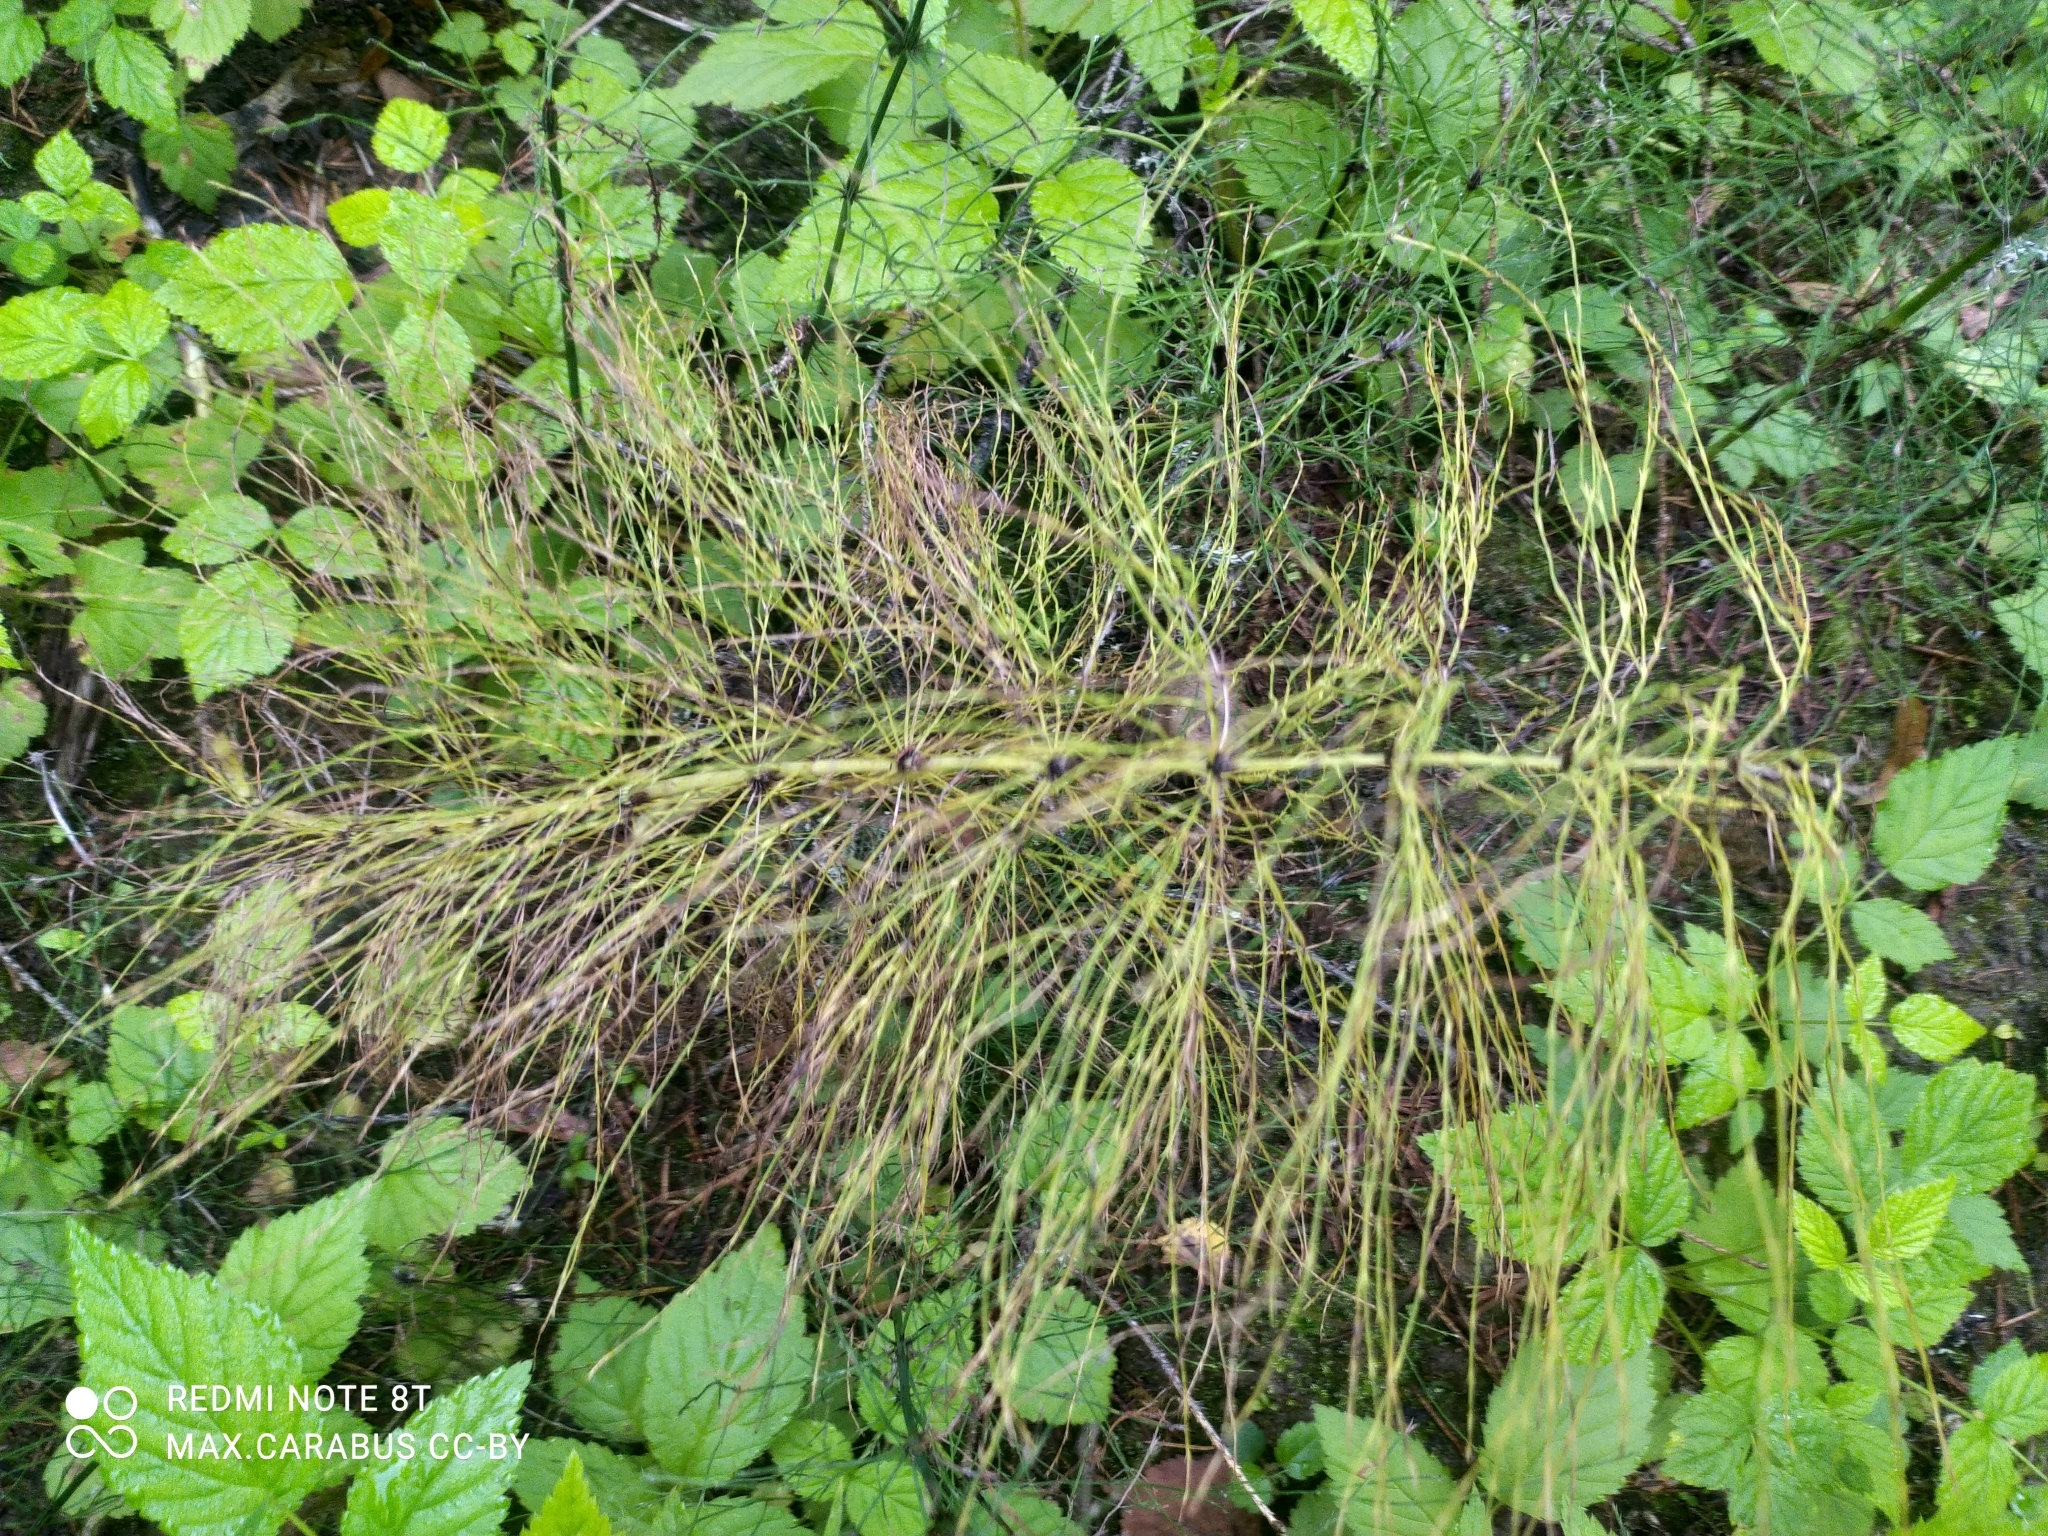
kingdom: Plantae
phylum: Tracheophyta
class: Polypodiopsida
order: Equisetales
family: Equisetaceae
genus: Equisetum
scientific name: Equisetum sylvaticum
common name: Wood horsetail
